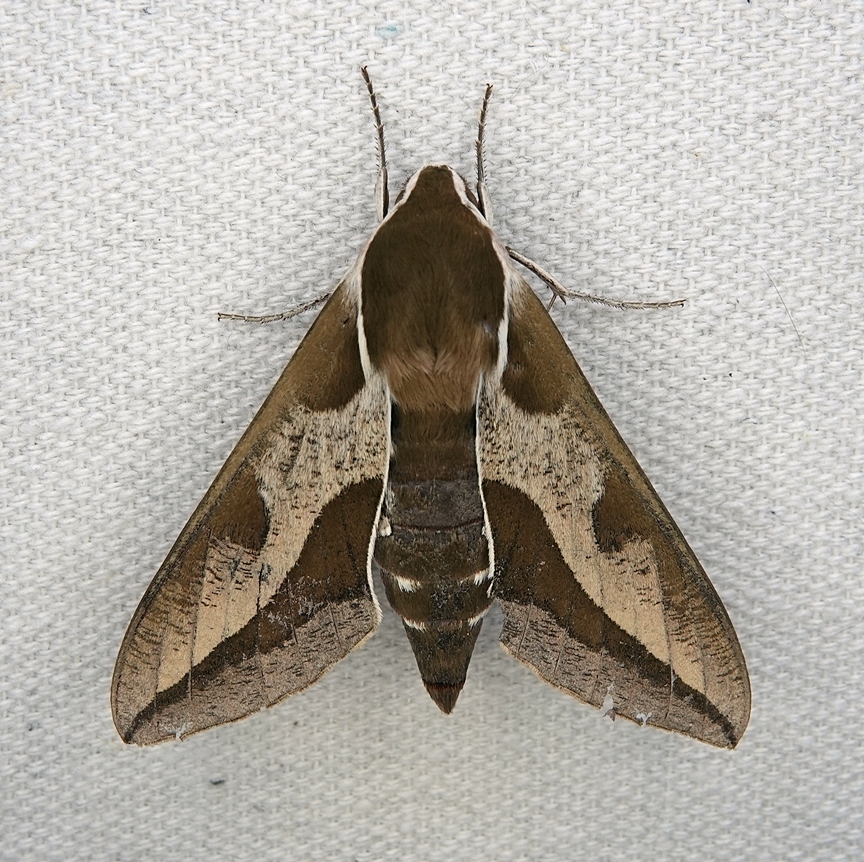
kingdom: Animalia
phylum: Arthropoda
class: Insecta
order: Lepidoptera
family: Sphingidae
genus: Hyles
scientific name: Hyles euphorbiae
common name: Spurge hawk-moth
